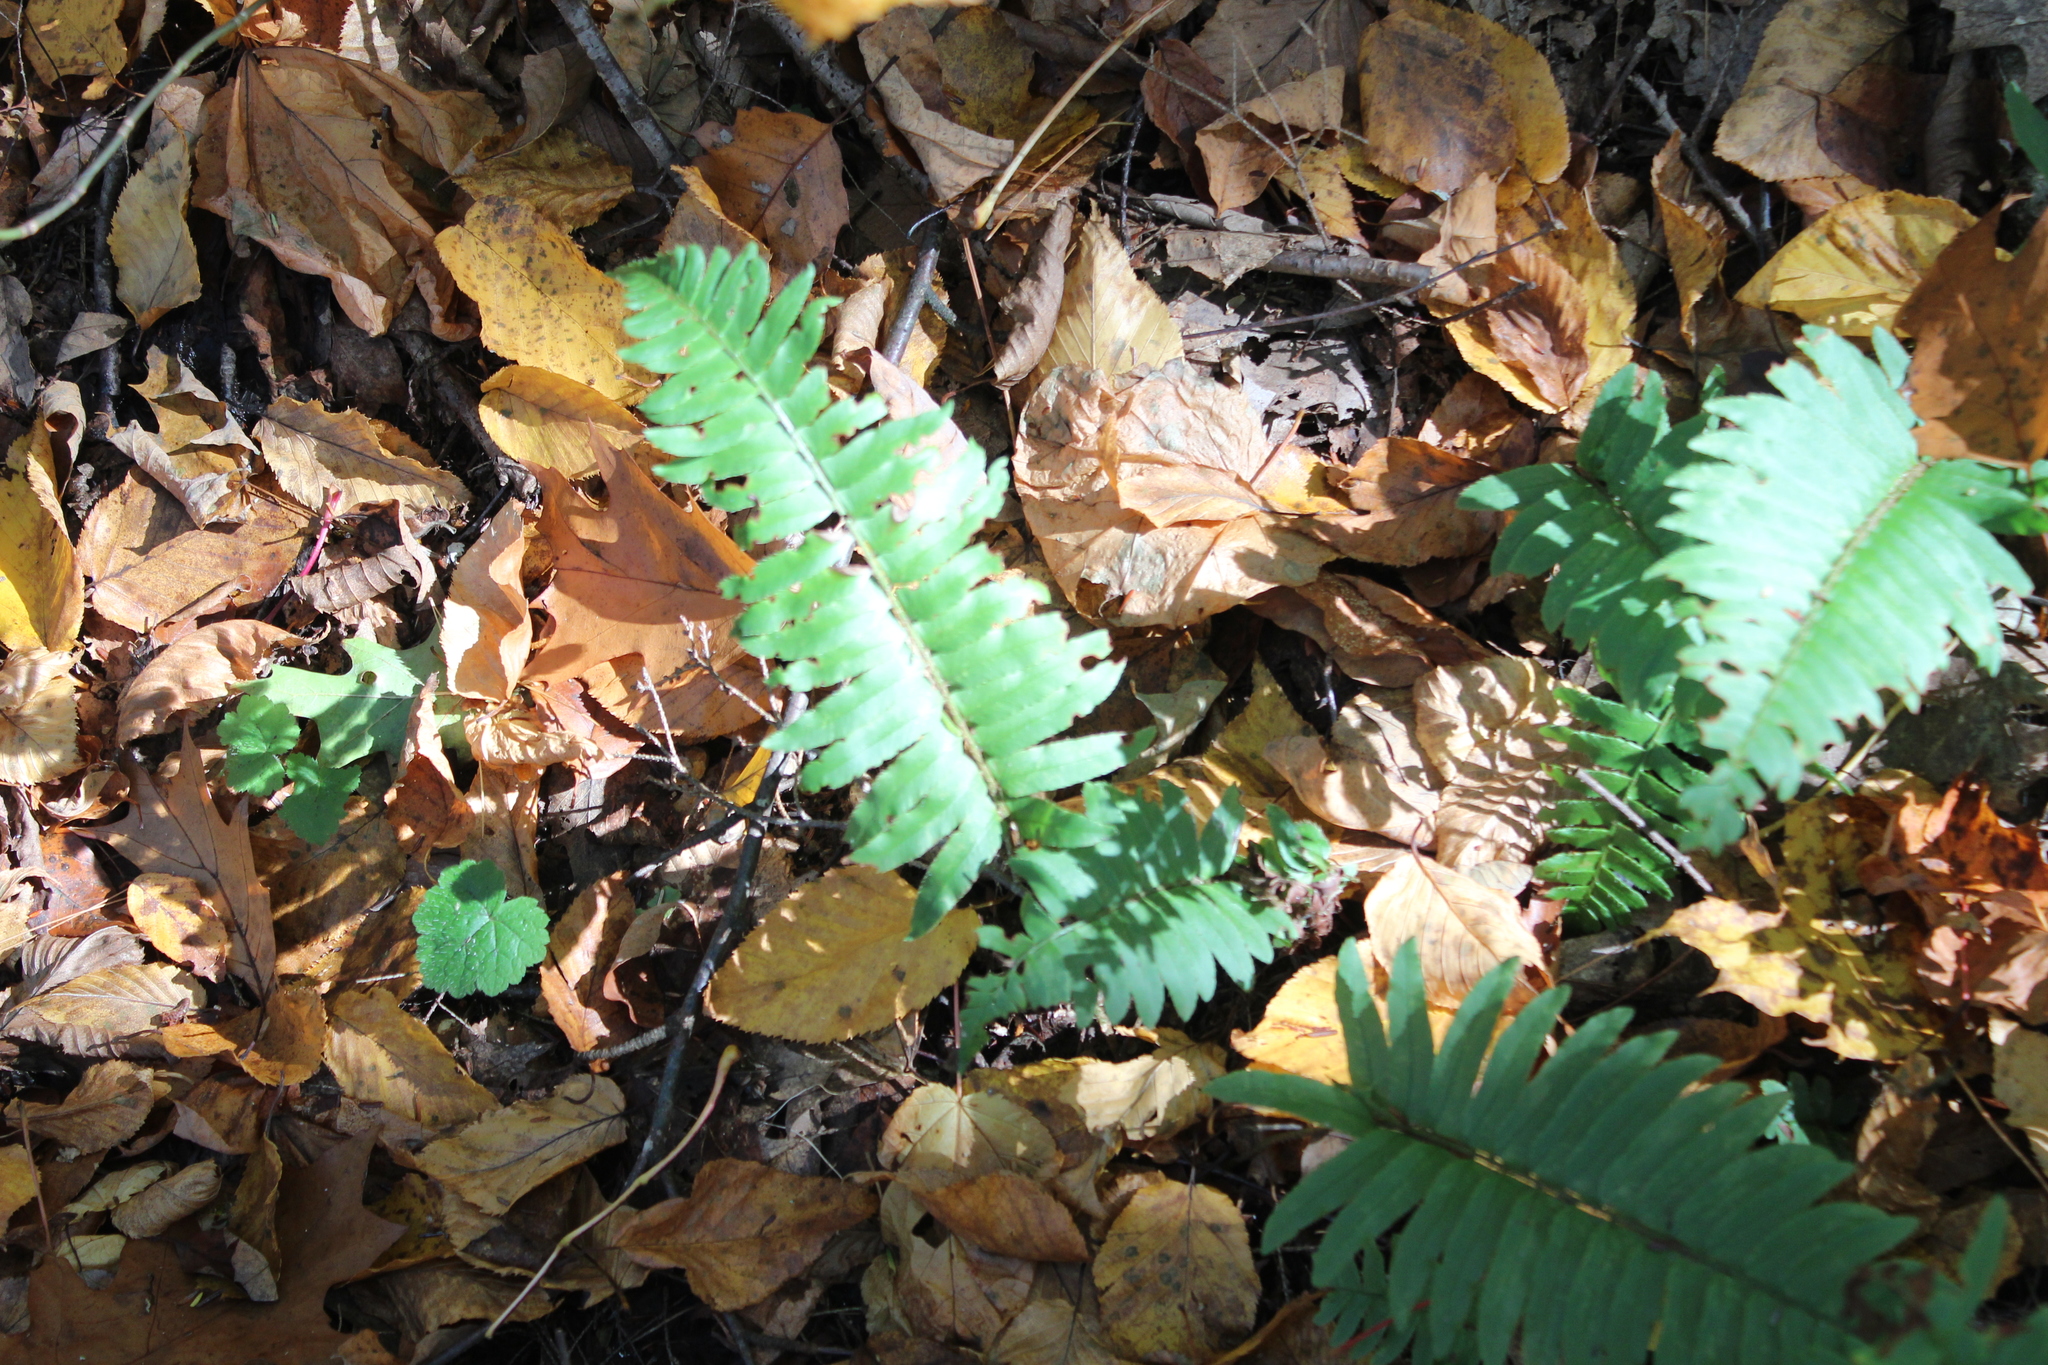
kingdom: Plantae
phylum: Tracheophyta
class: Polypodiopsida
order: Polypodiales
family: Dryopteridaceae
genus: Polystichum
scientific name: Polystichum acrostichoides
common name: Christmas fern
